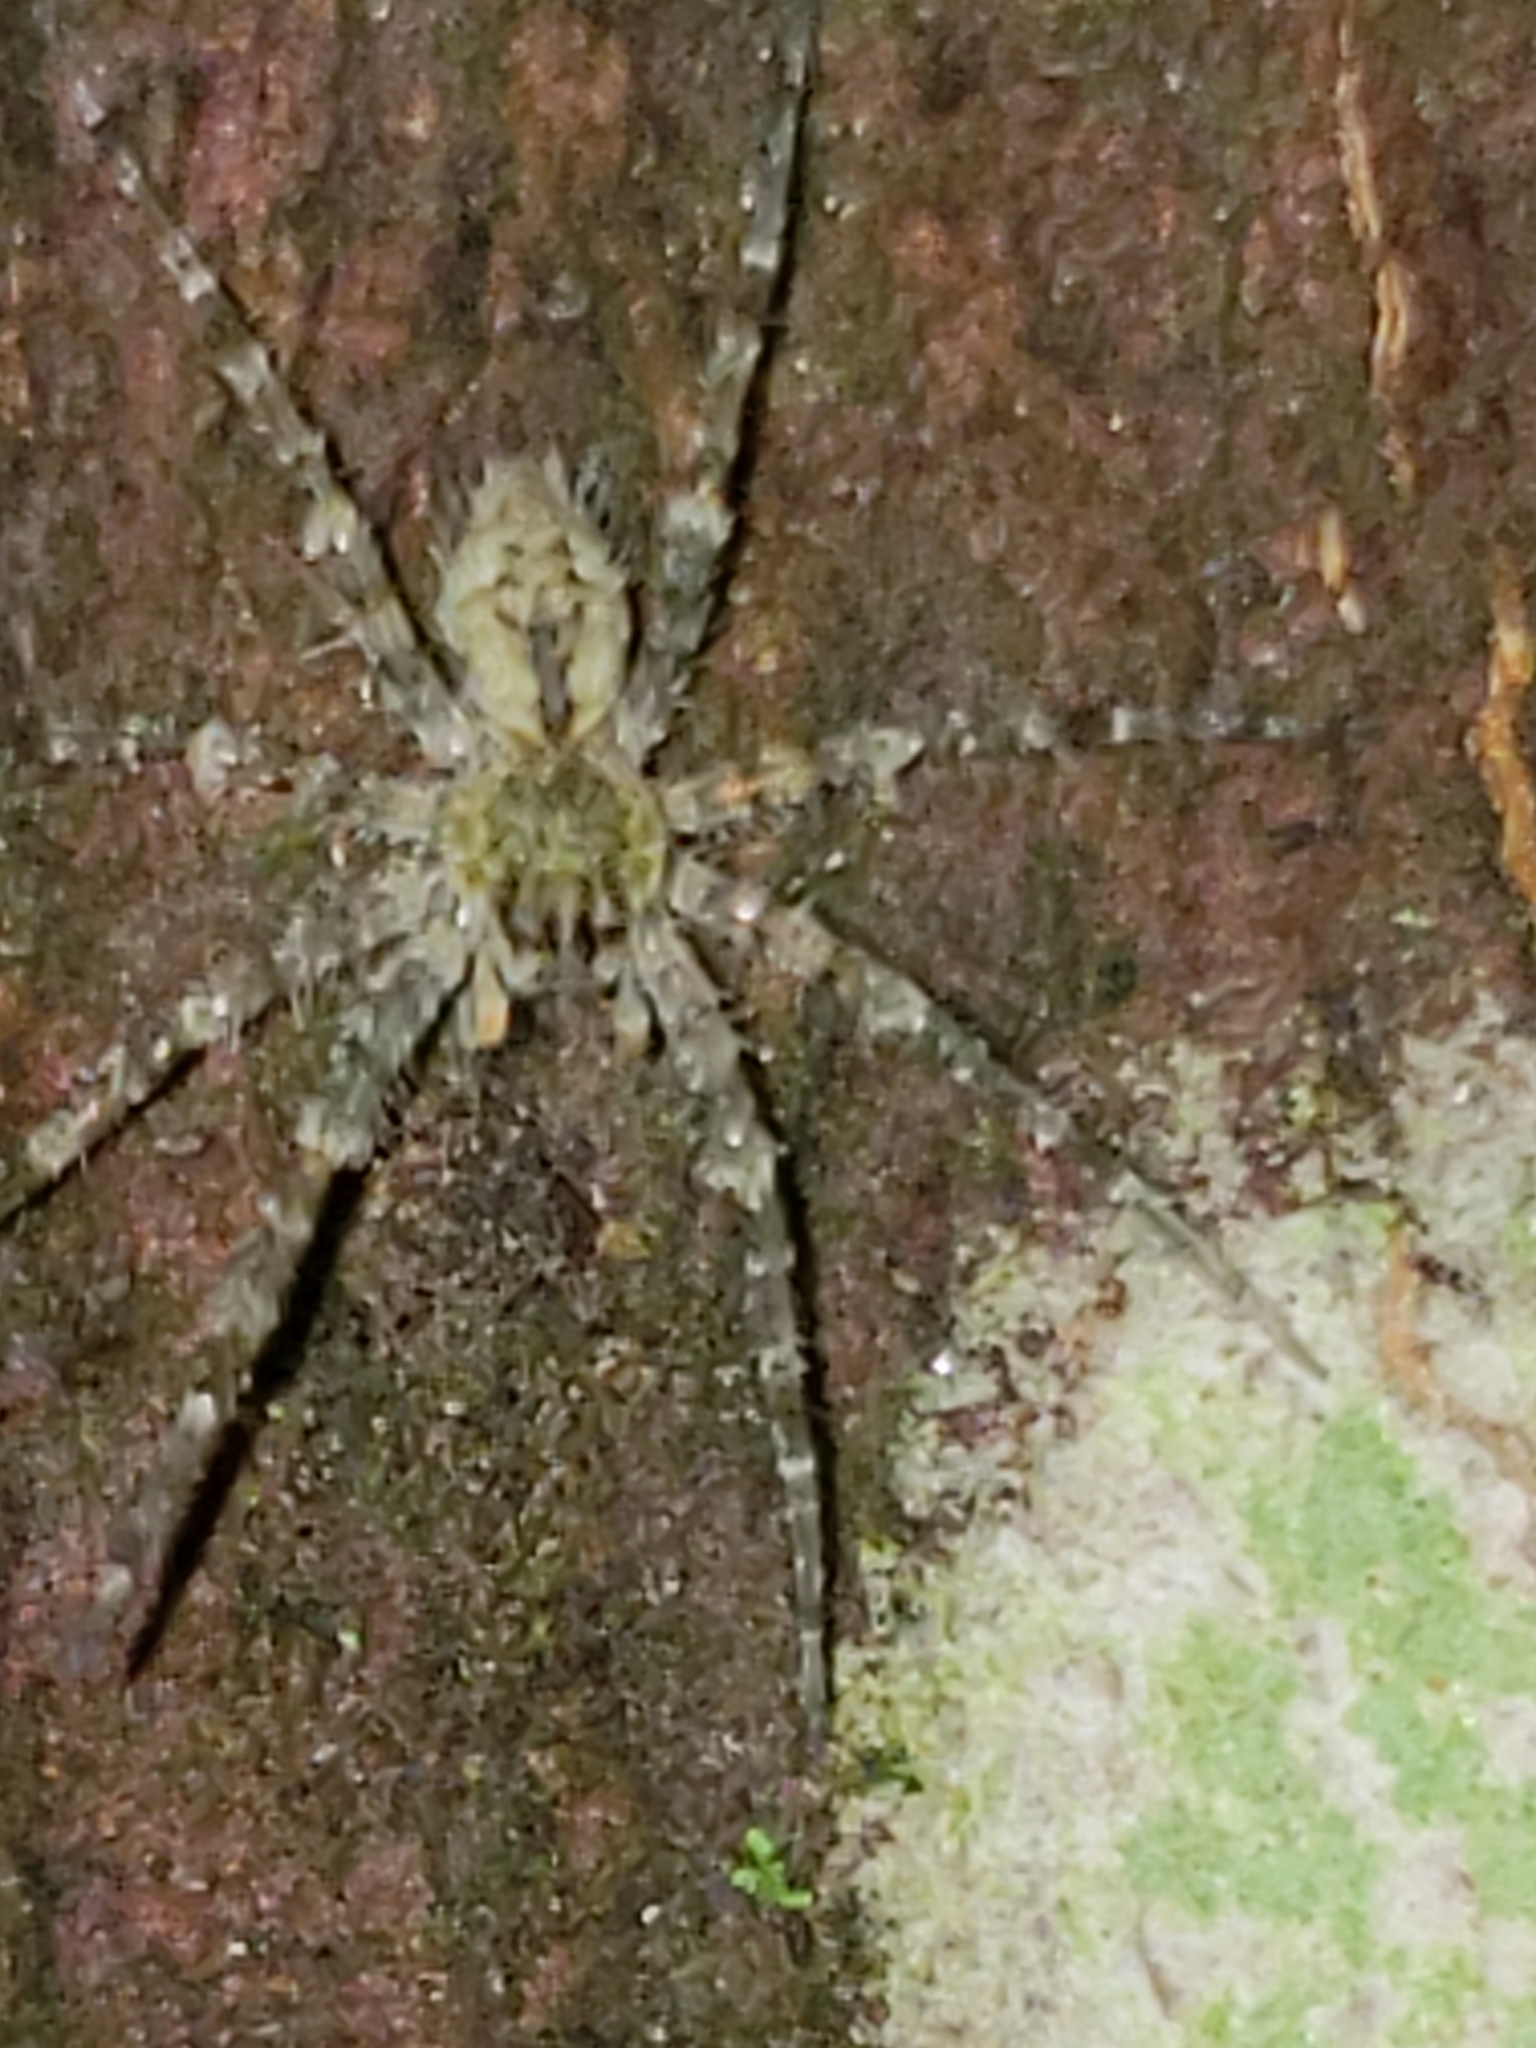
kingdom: Animalia
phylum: Arthropoda
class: Arachnida
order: Araneae
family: Pisauridae
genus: Dolomedes
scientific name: Dolomedes albineus
